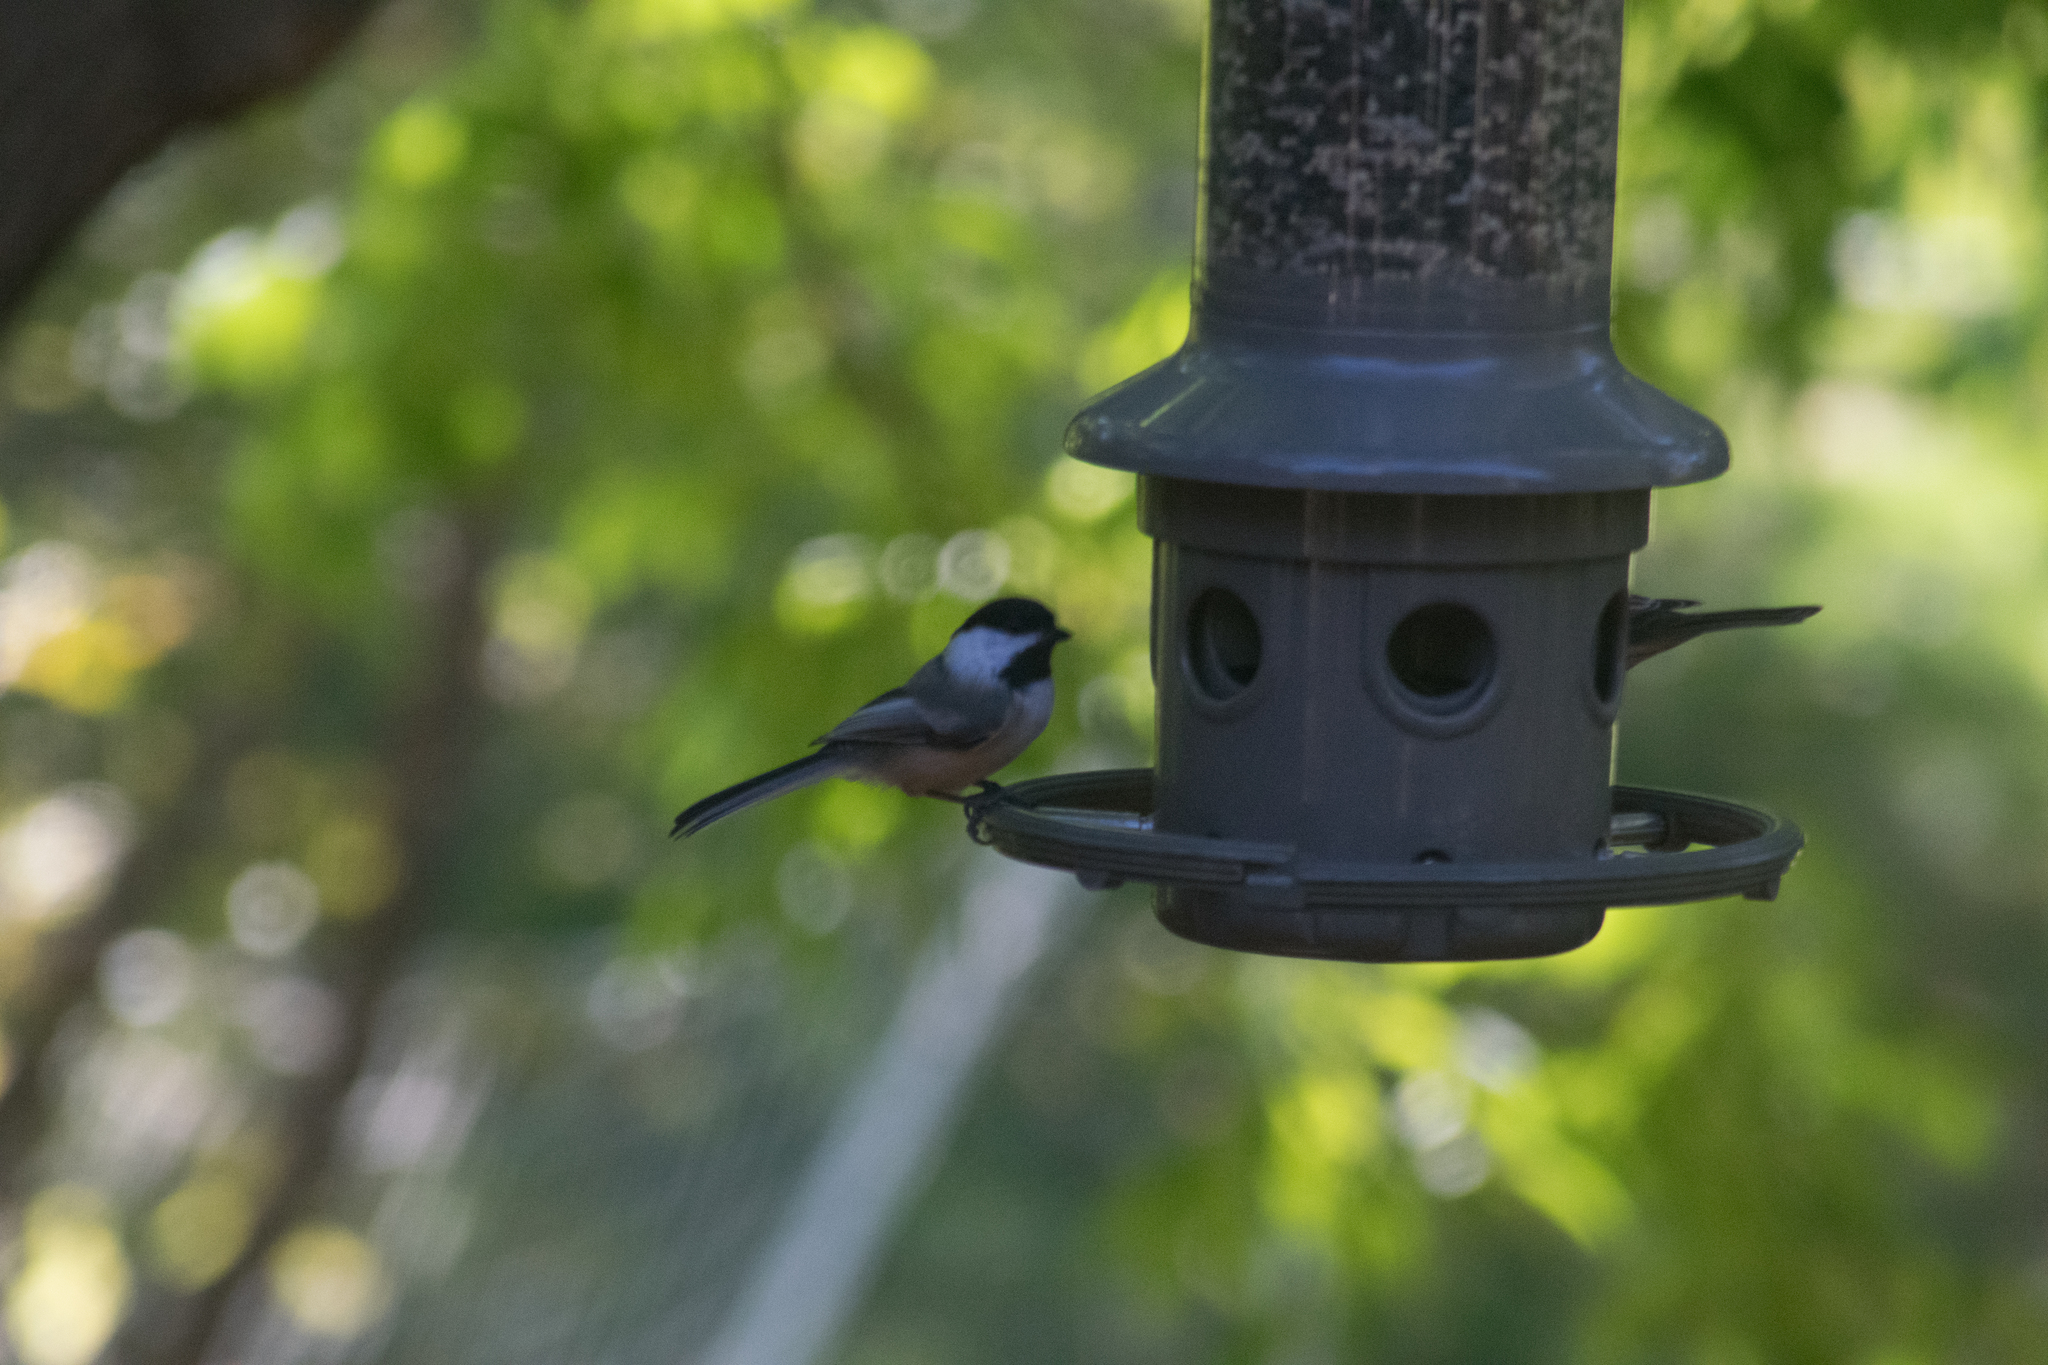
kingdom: Animalia
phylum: Chordata
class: Aves
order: Passeriformes
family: Paridae
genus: Poecile
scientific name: Poecile atricapillus
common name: Black-capped chickadee
